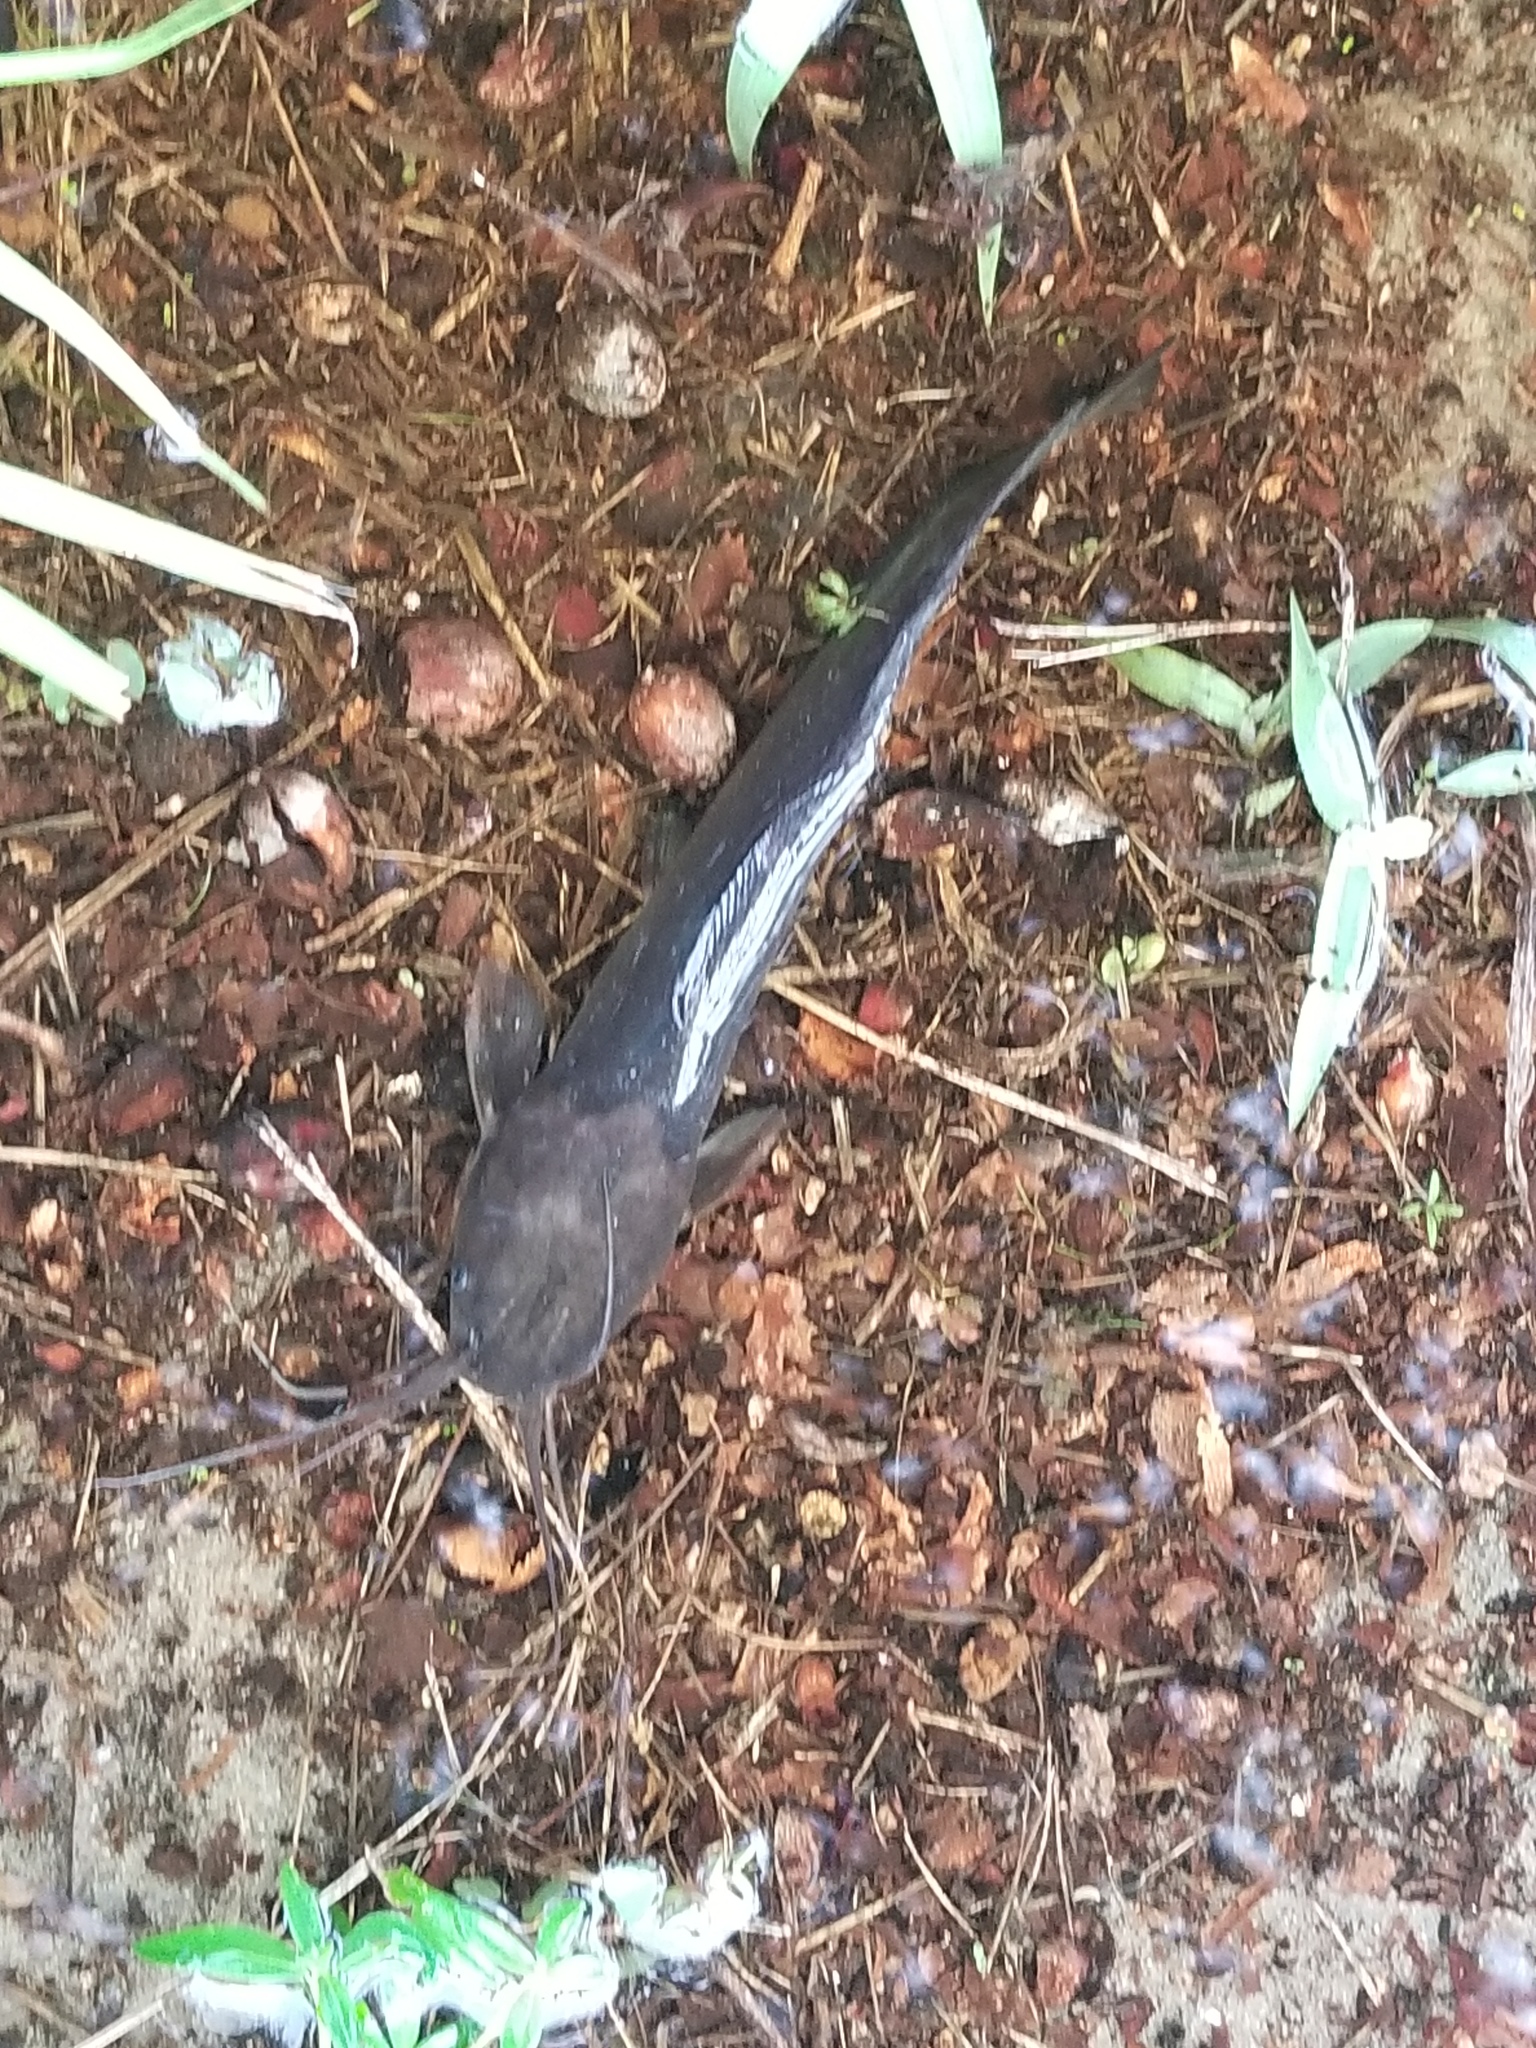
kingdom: Animalia
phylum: Chordata
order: Siluriformes
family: Clariidae
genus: Clarias
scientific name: Clarias batrachus
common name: Walking catfish
